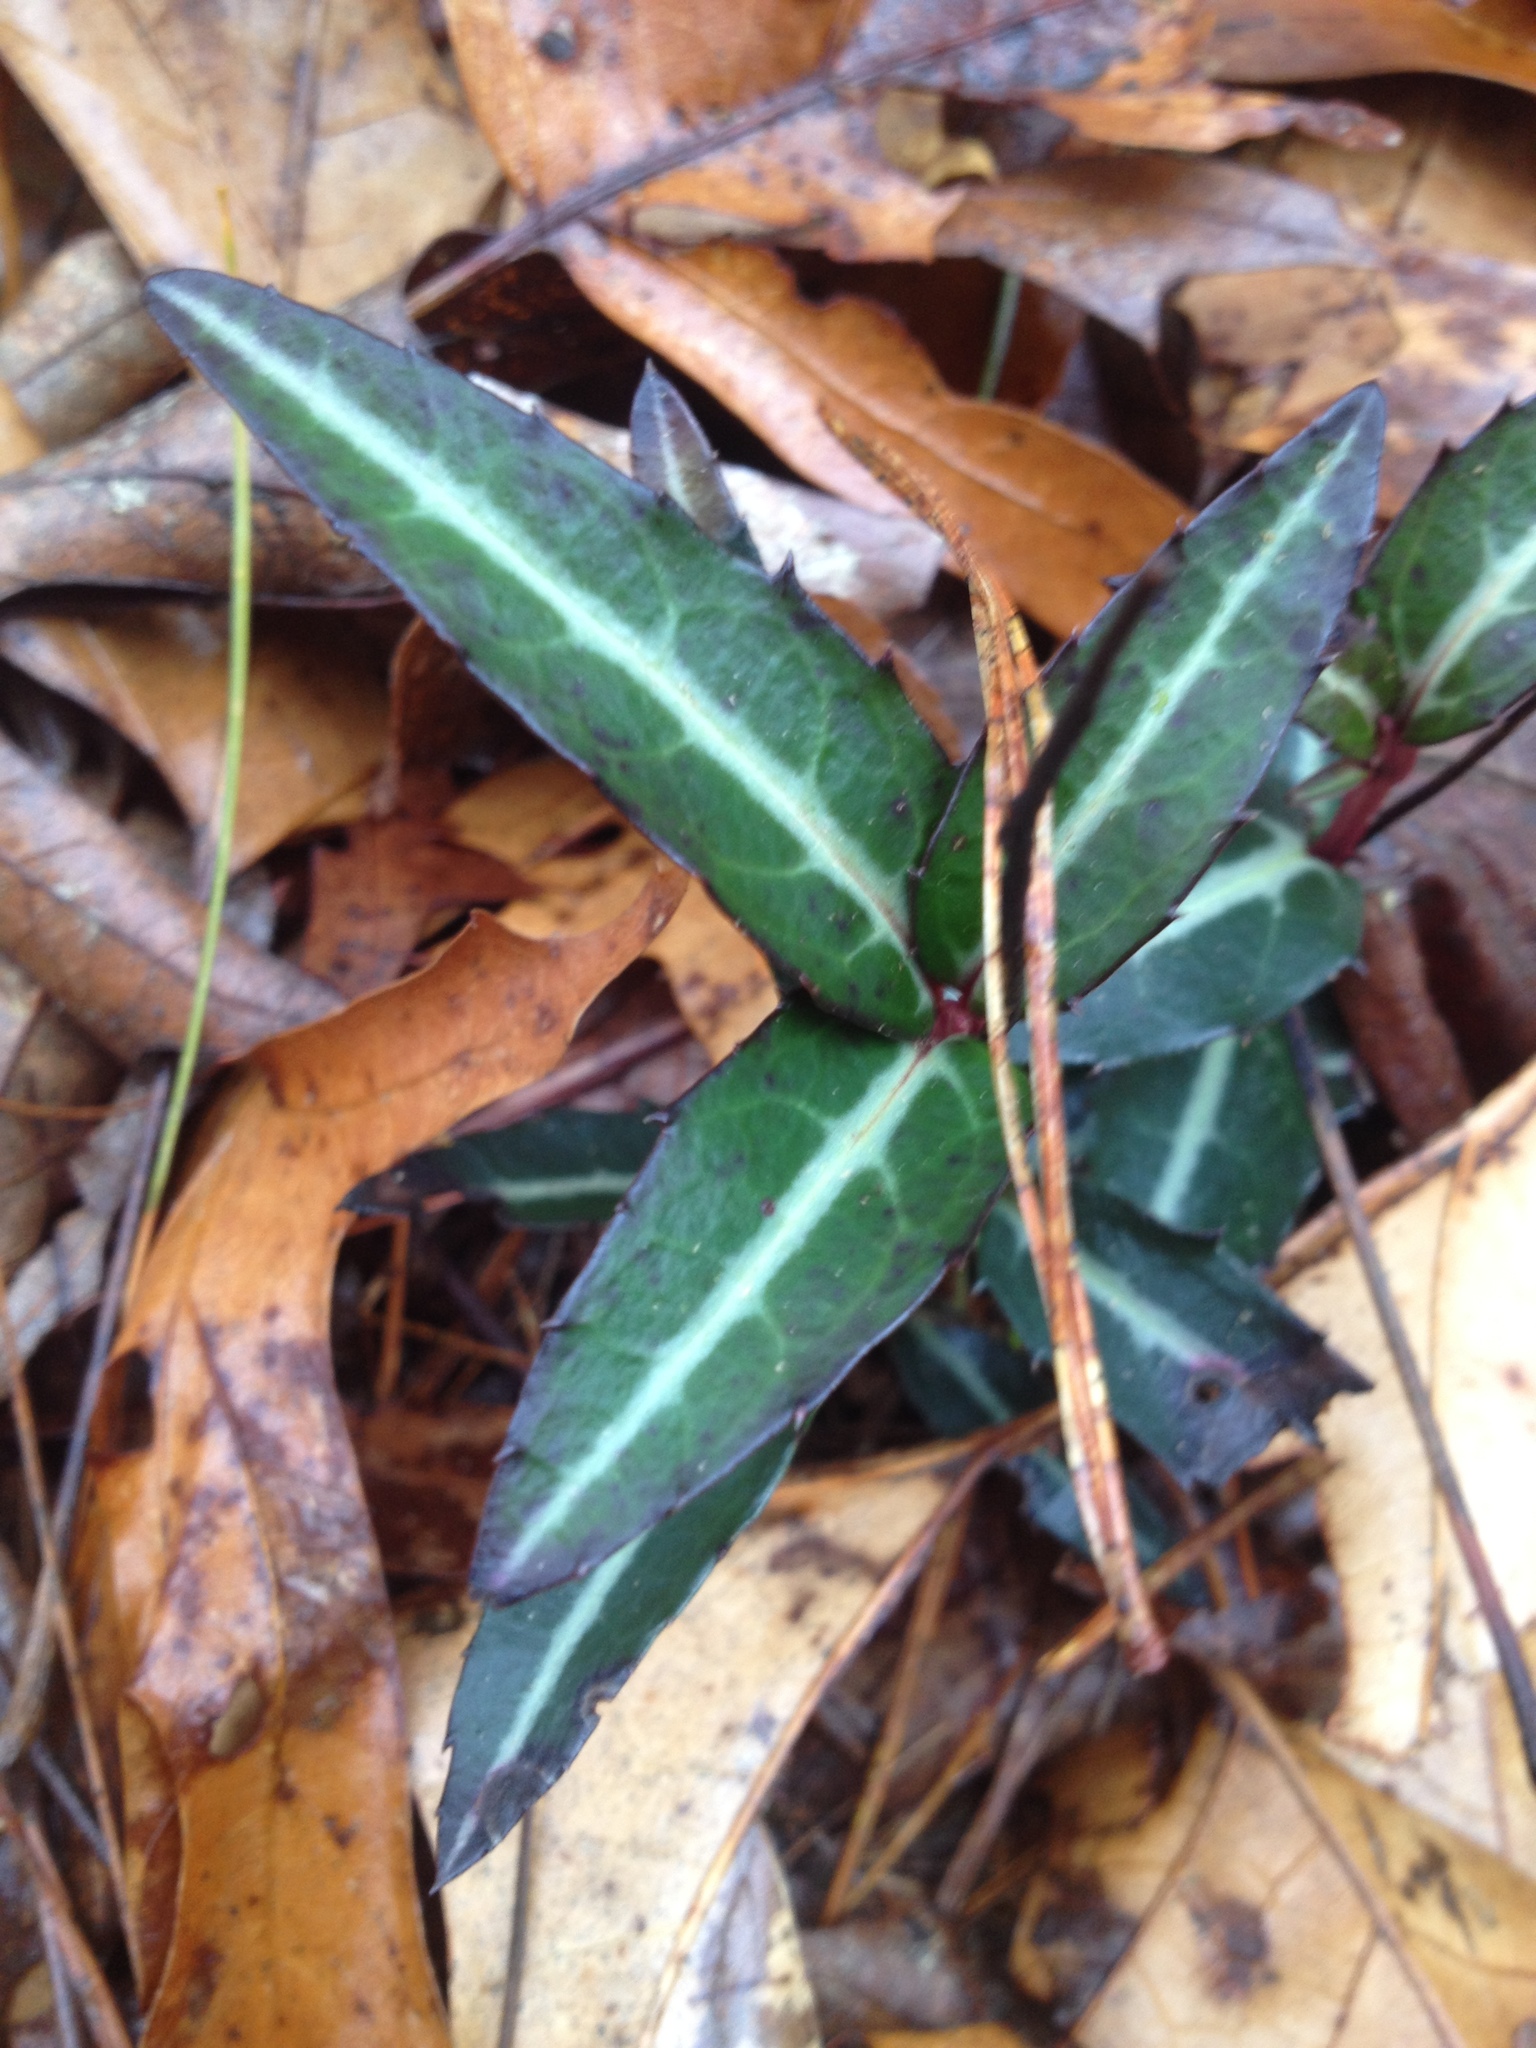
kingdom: Plantae
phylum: Tracheophyta
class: Magnoliopsida
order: Ericales
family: Ericaceae
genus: Chimaphila
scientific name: Chimaphila maculata
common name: Spotted pipsissewa
